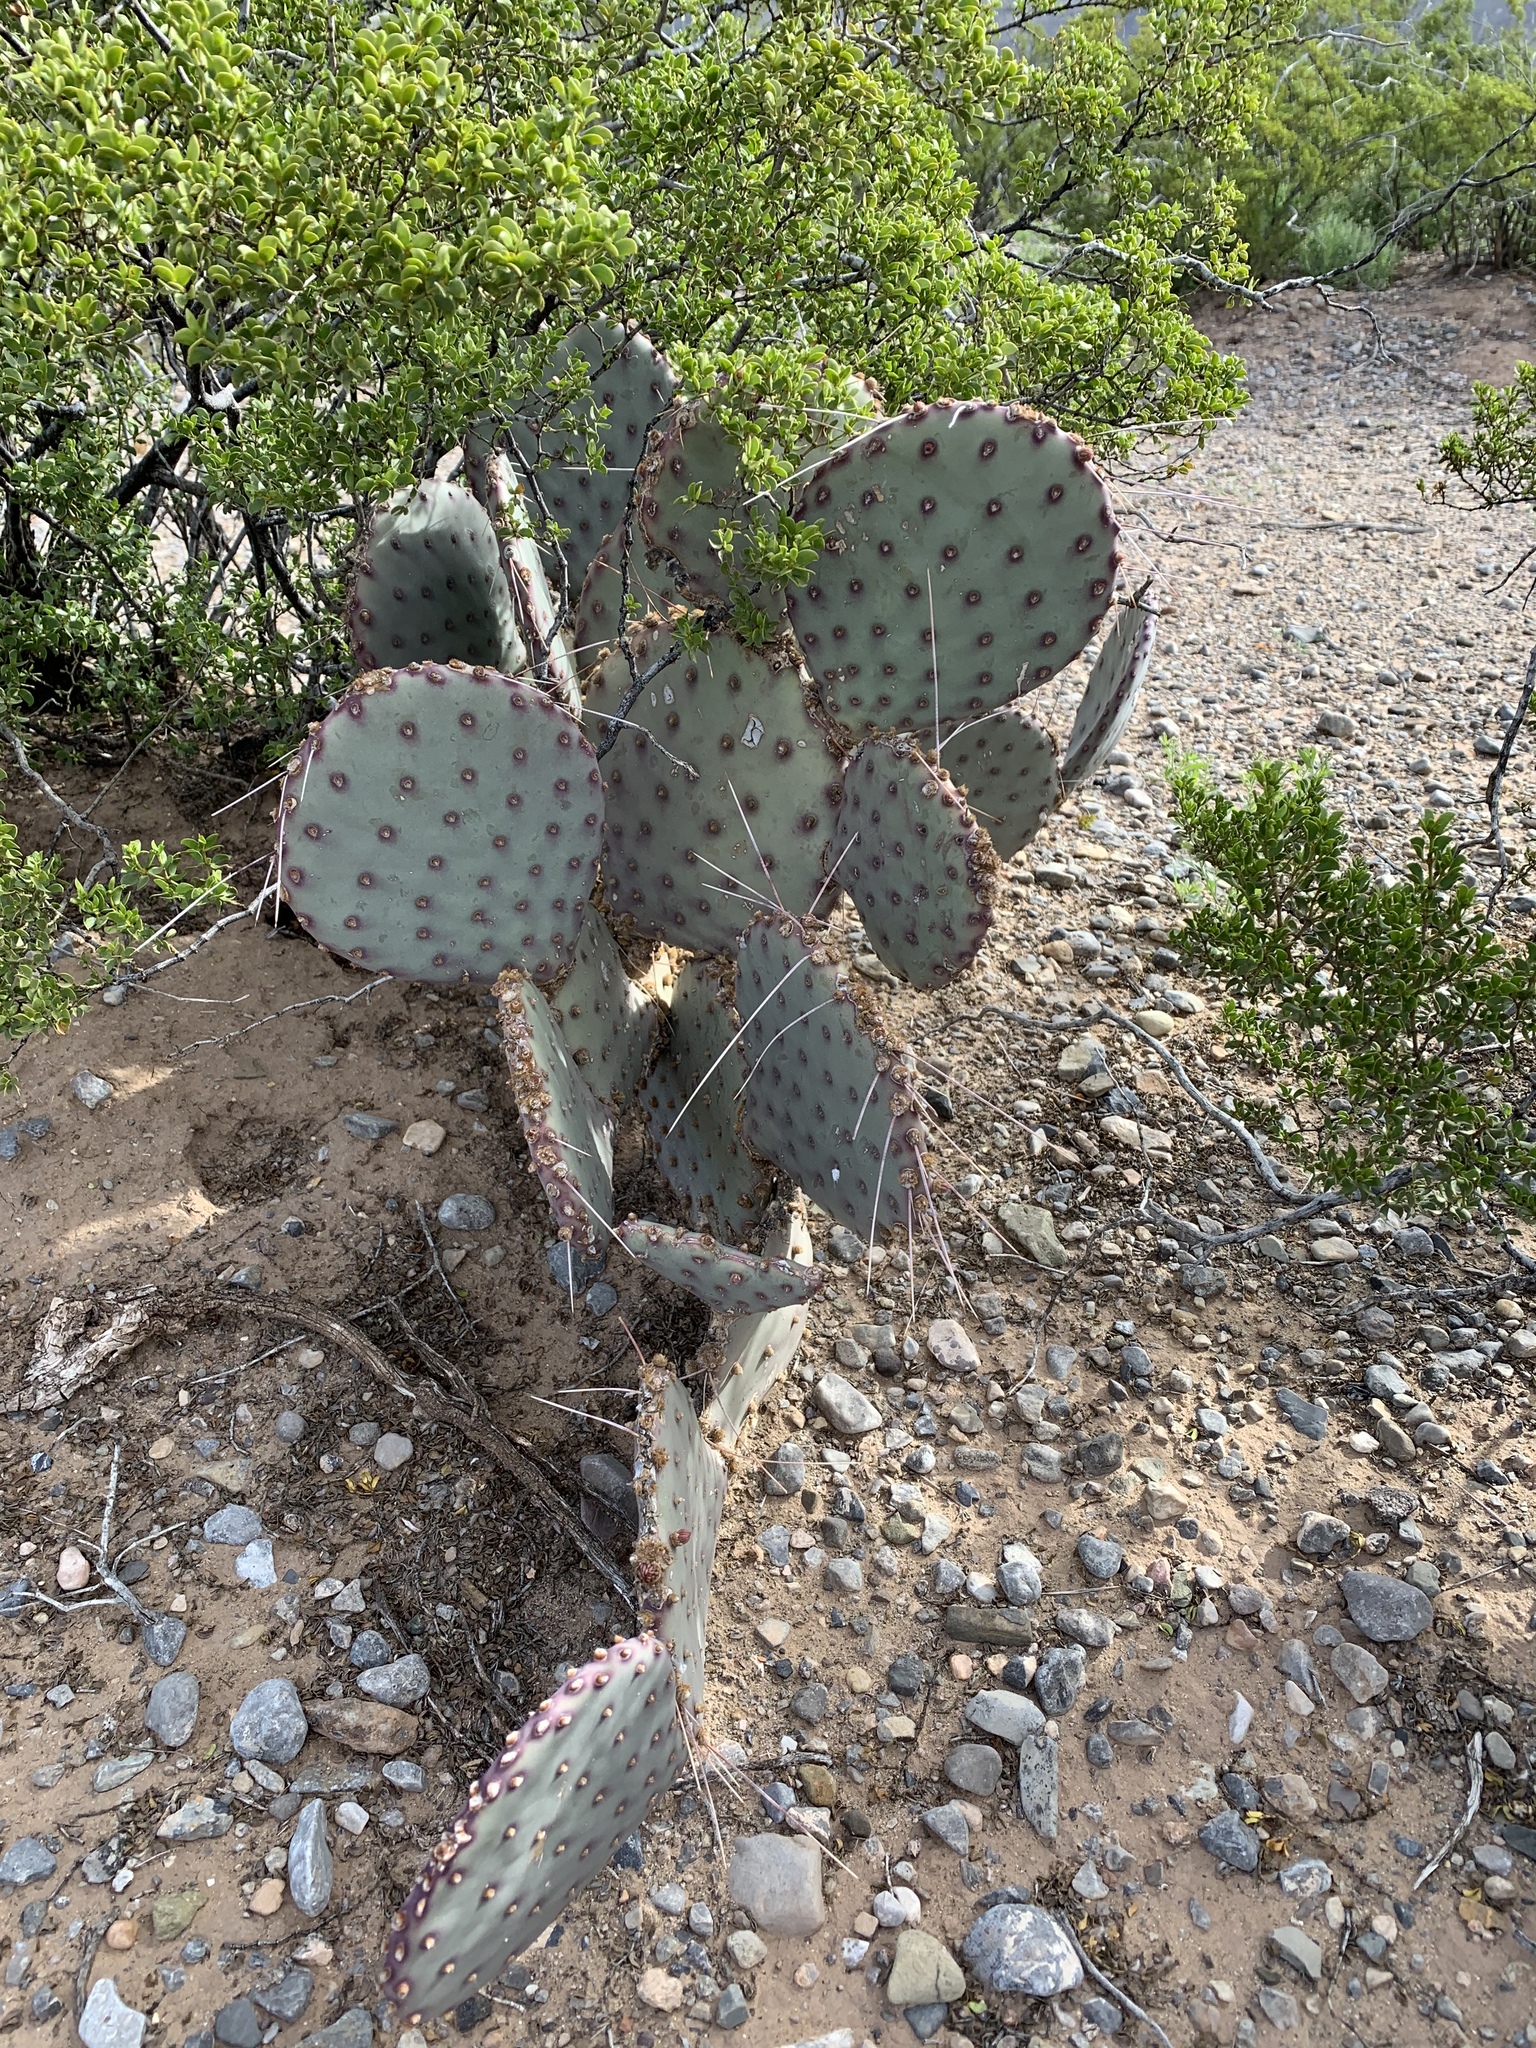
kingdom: Plantae
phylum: Tracheophyta
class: Magnoliopsida
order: Caryophyllales
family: Cactaceae
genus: Opuntia
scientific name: Opuntia macrocentra
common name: Purple prickly-pear
